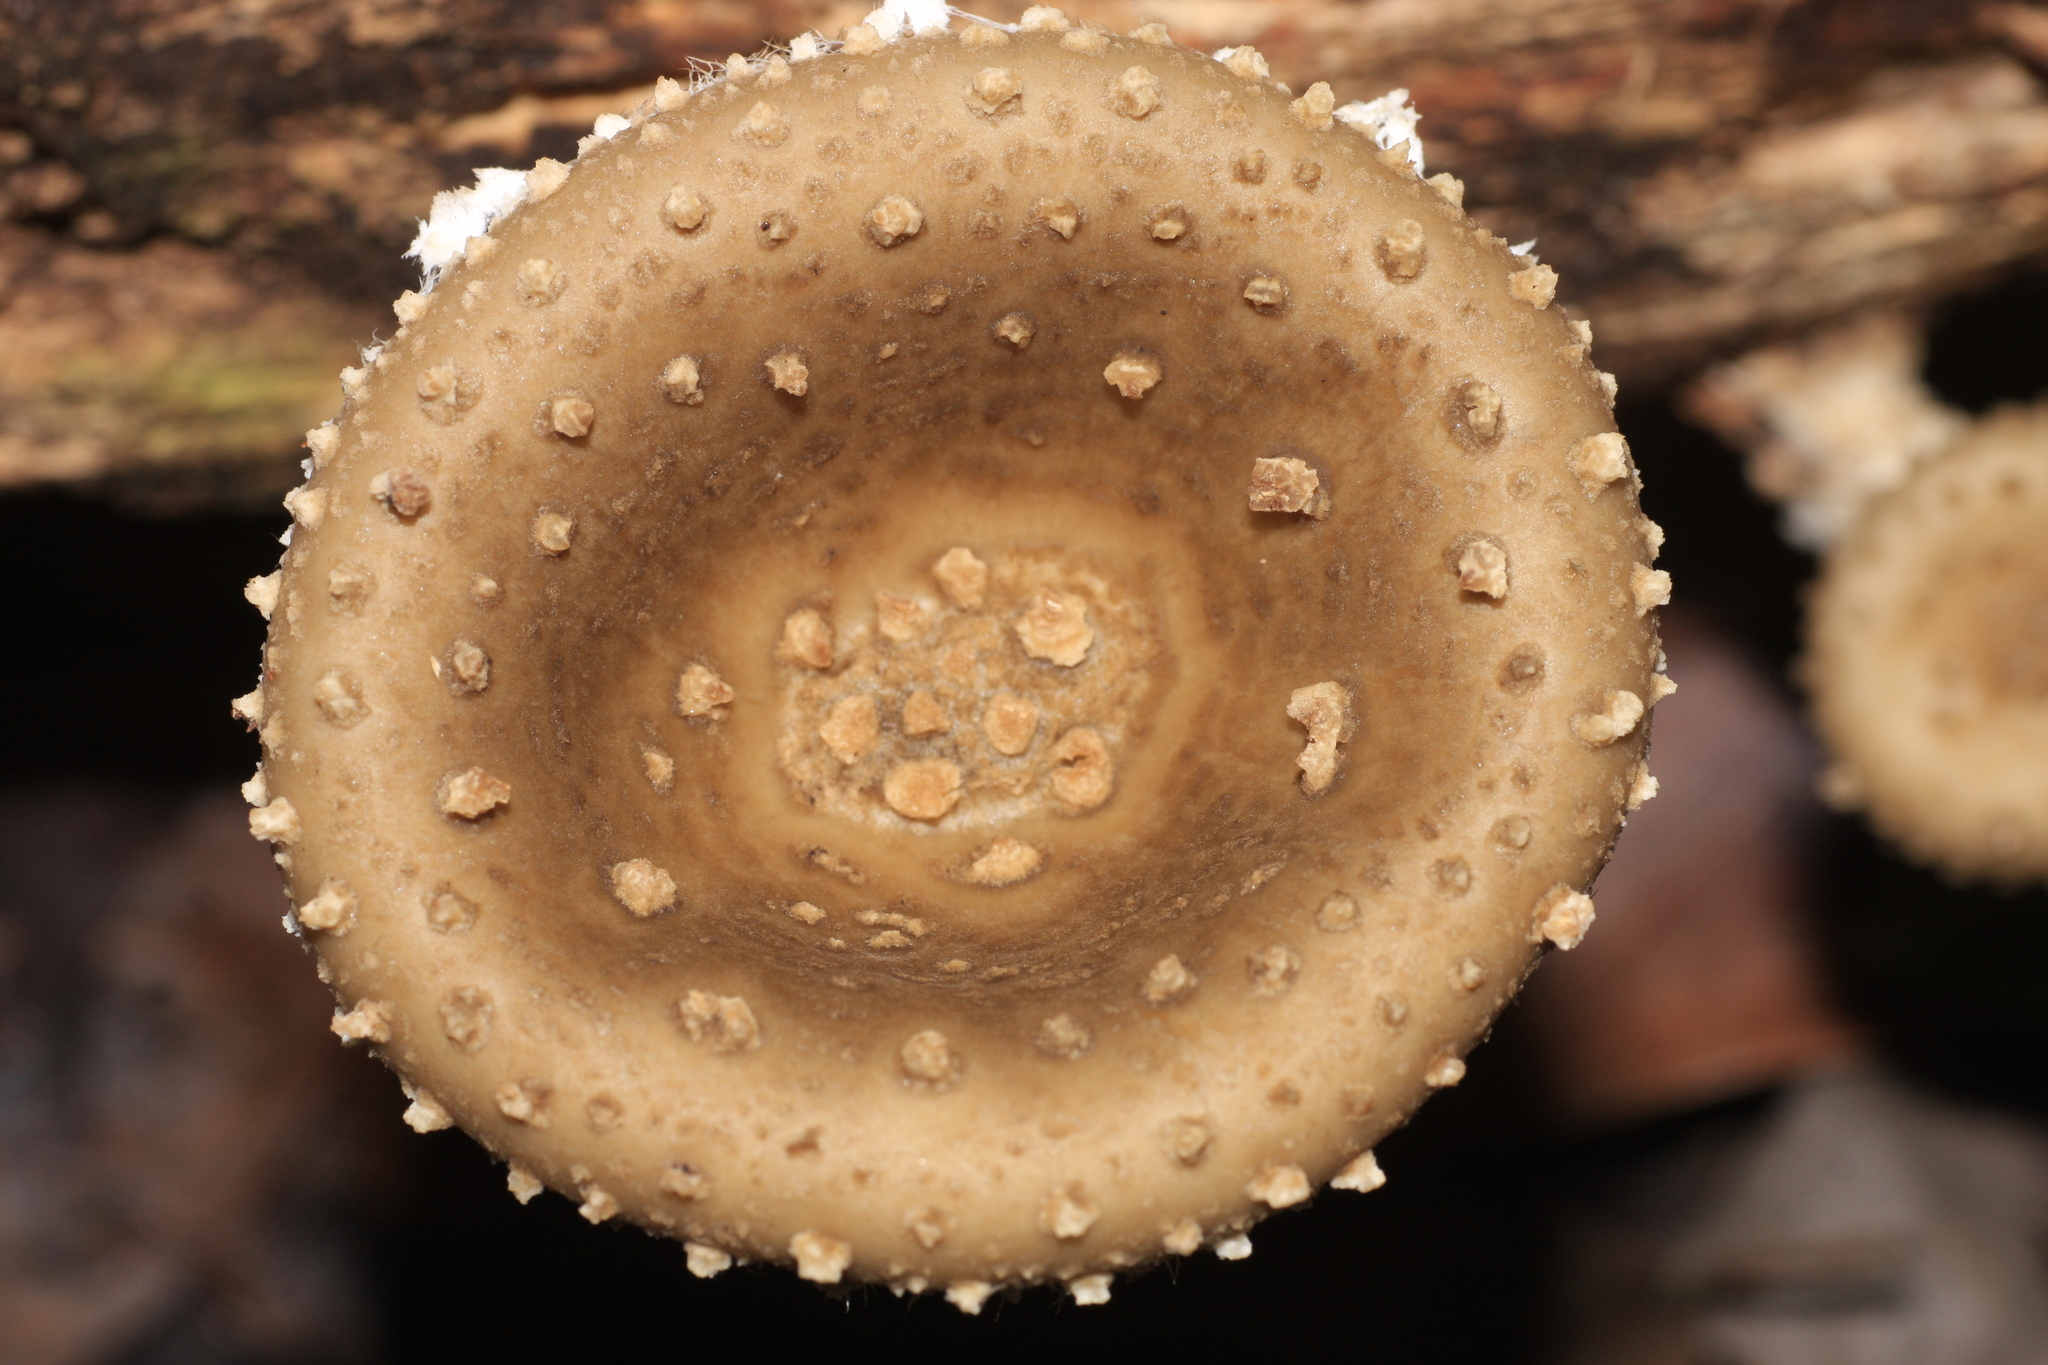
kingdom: Fungi
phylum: Basidiomycota
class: Agaricomycetes
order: Polyporales
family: Polyporaceae
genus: Lentinus
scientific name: Lentinus badius
